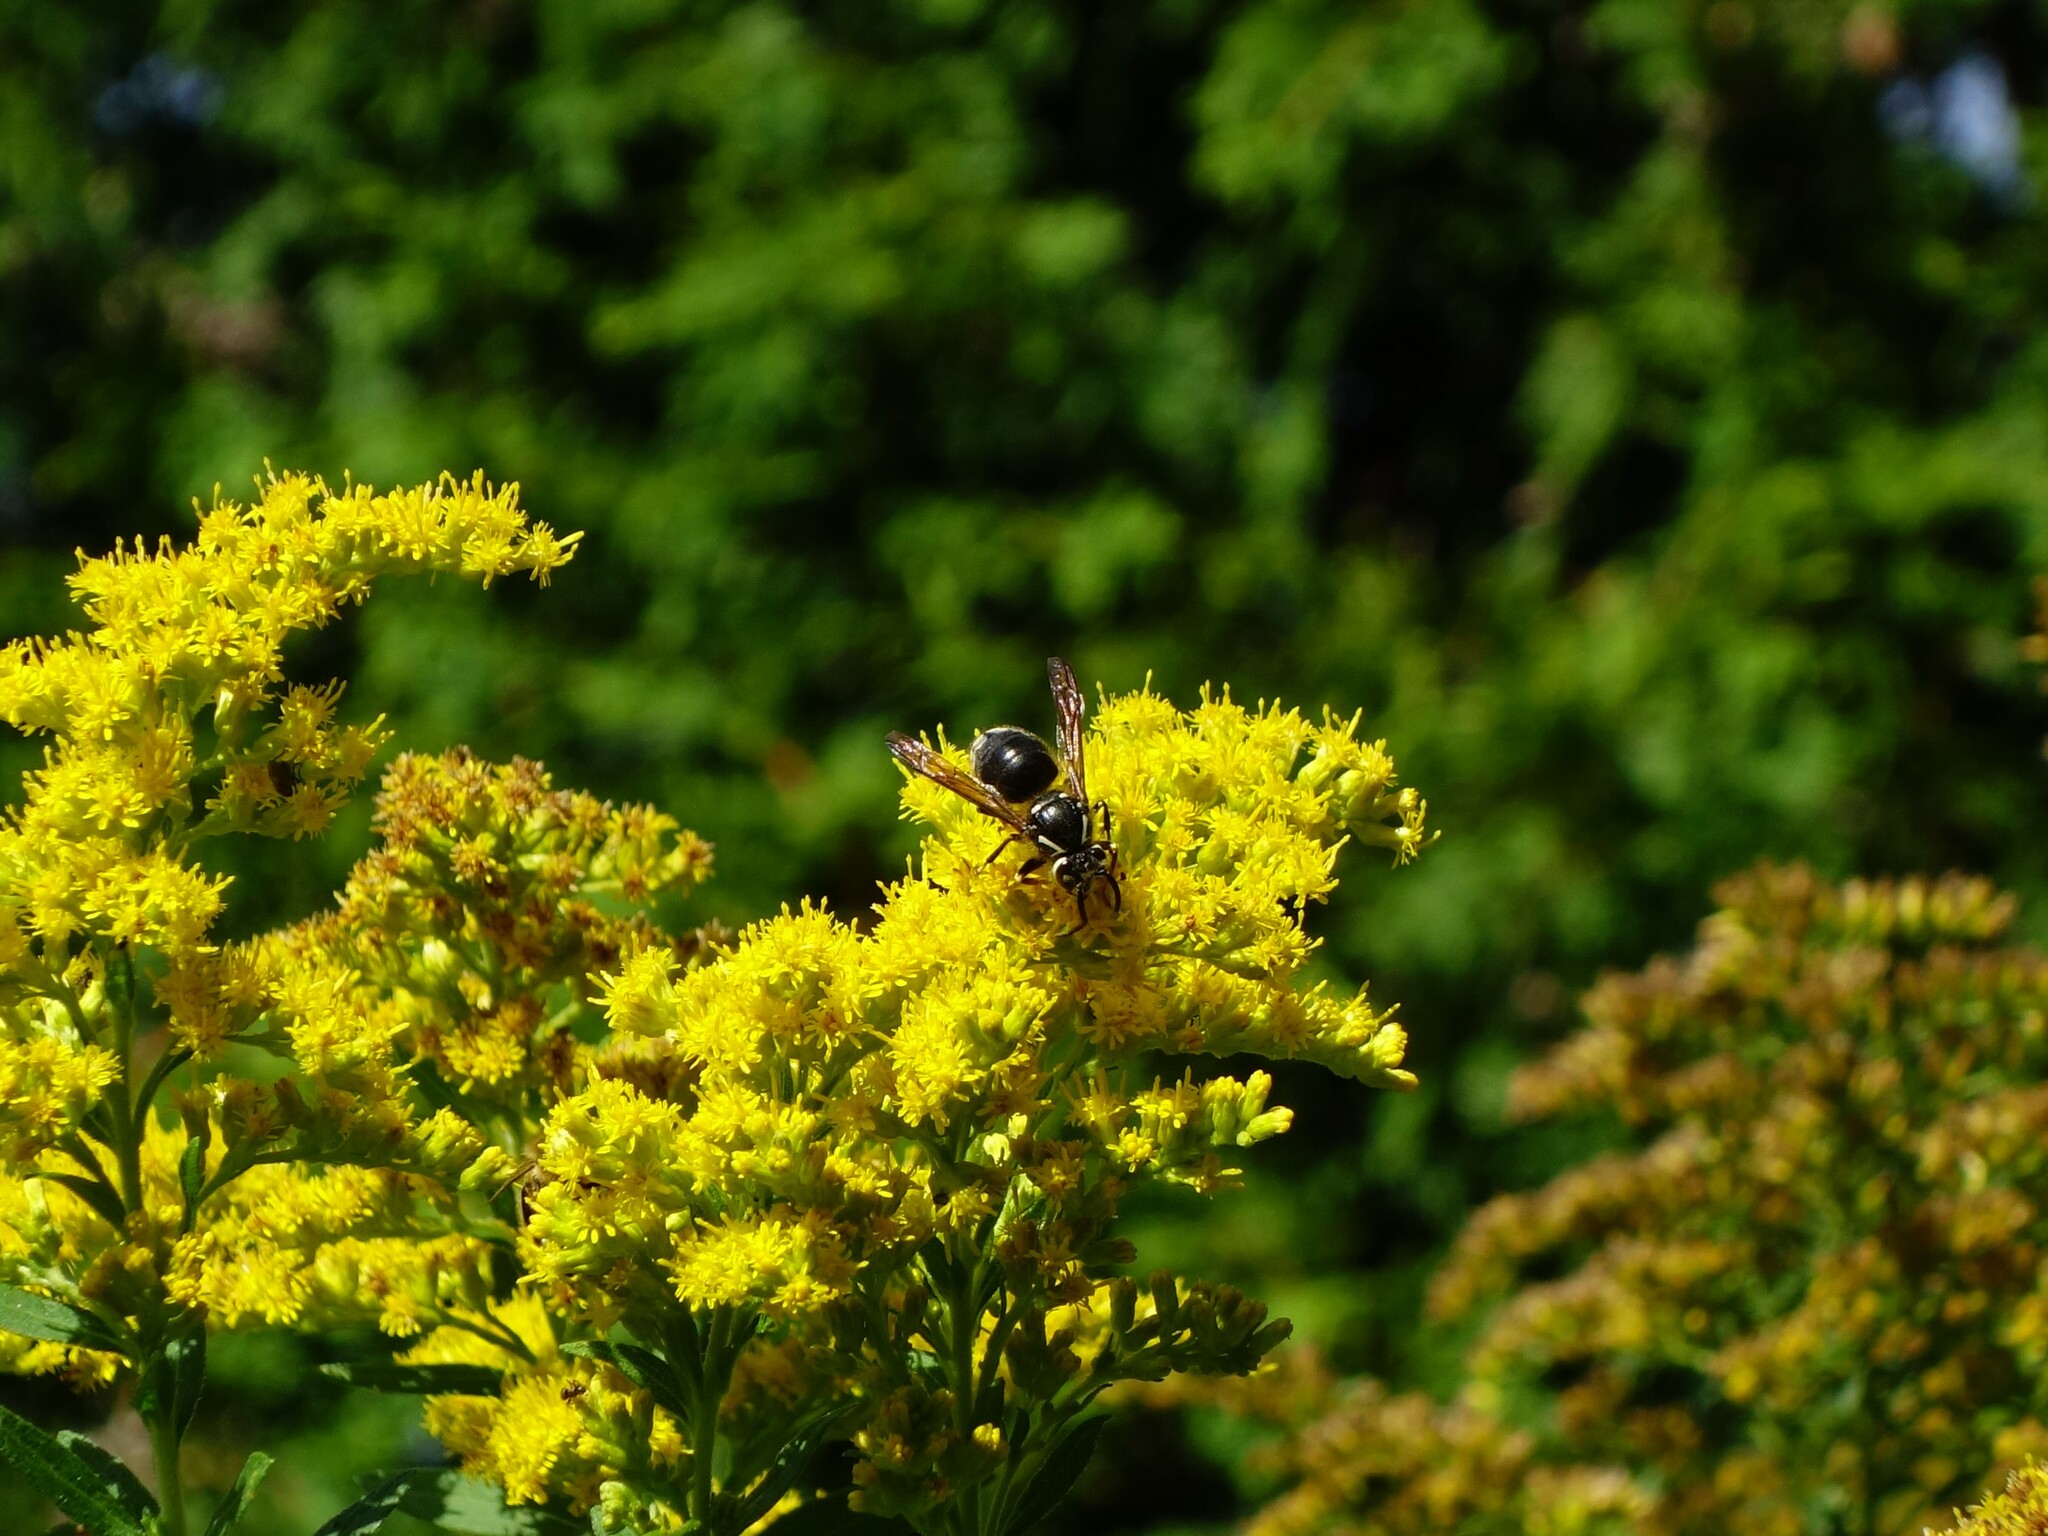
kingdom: Animalia
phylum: Arthropoda
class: Insecta
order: Hymenoptera
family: Vespidae
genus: Dolichovespula
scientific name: Dolichovespula maculata
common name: Bald-faced hornet
